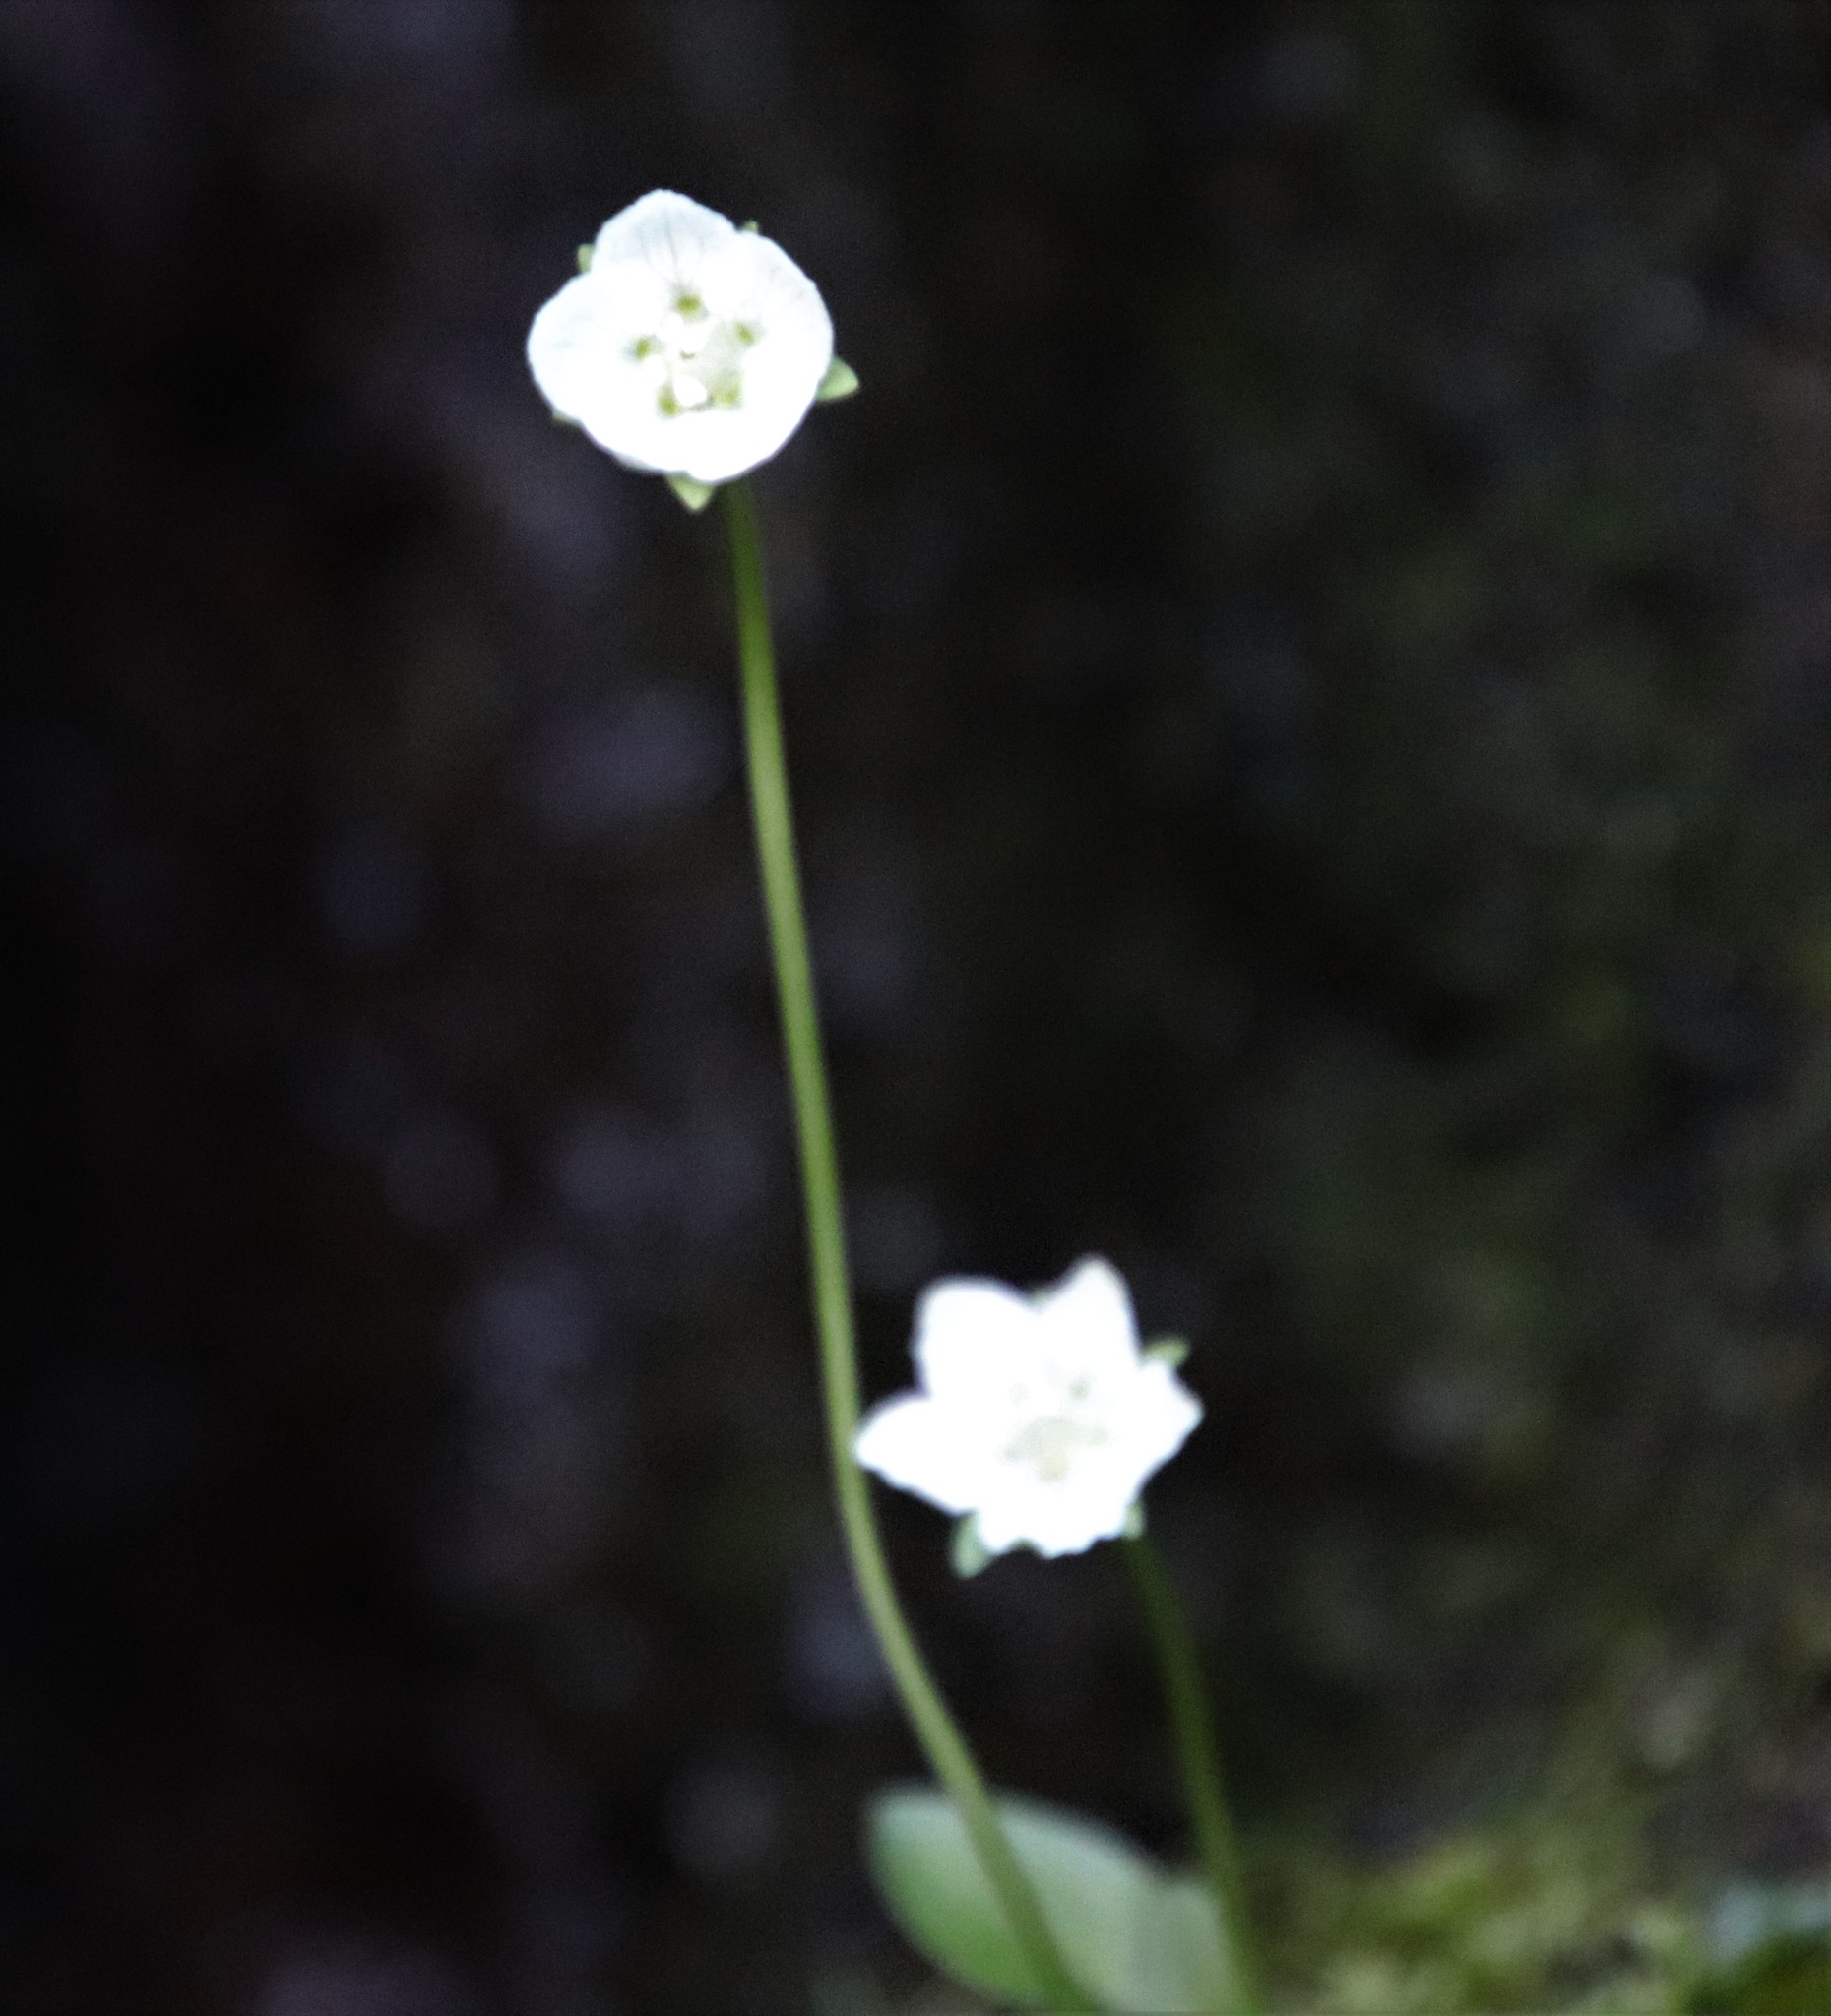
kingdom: Plantae
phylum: Tracheophyta
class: Magnoliopsida
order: Celastrales
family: Parnassiaceae
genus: Parnassia
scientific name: Parnassia palustris
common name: Grass-of-parnassus
